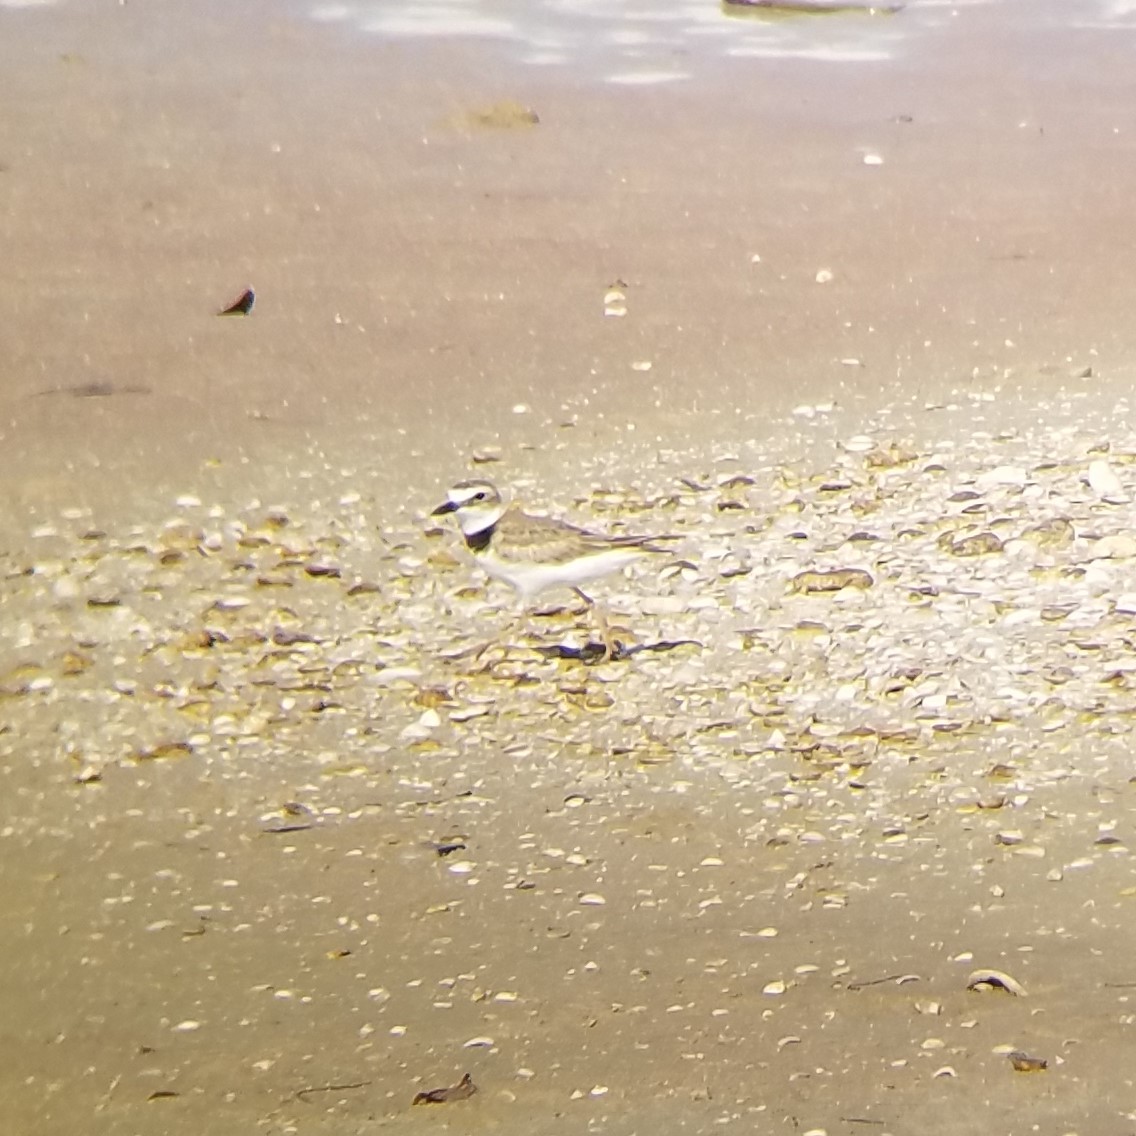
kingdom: Animalia
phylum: Chordata
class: Aves
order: Charadriiformes
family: Charadriidae
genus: Anarhynchus
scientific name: Anarhynchus
